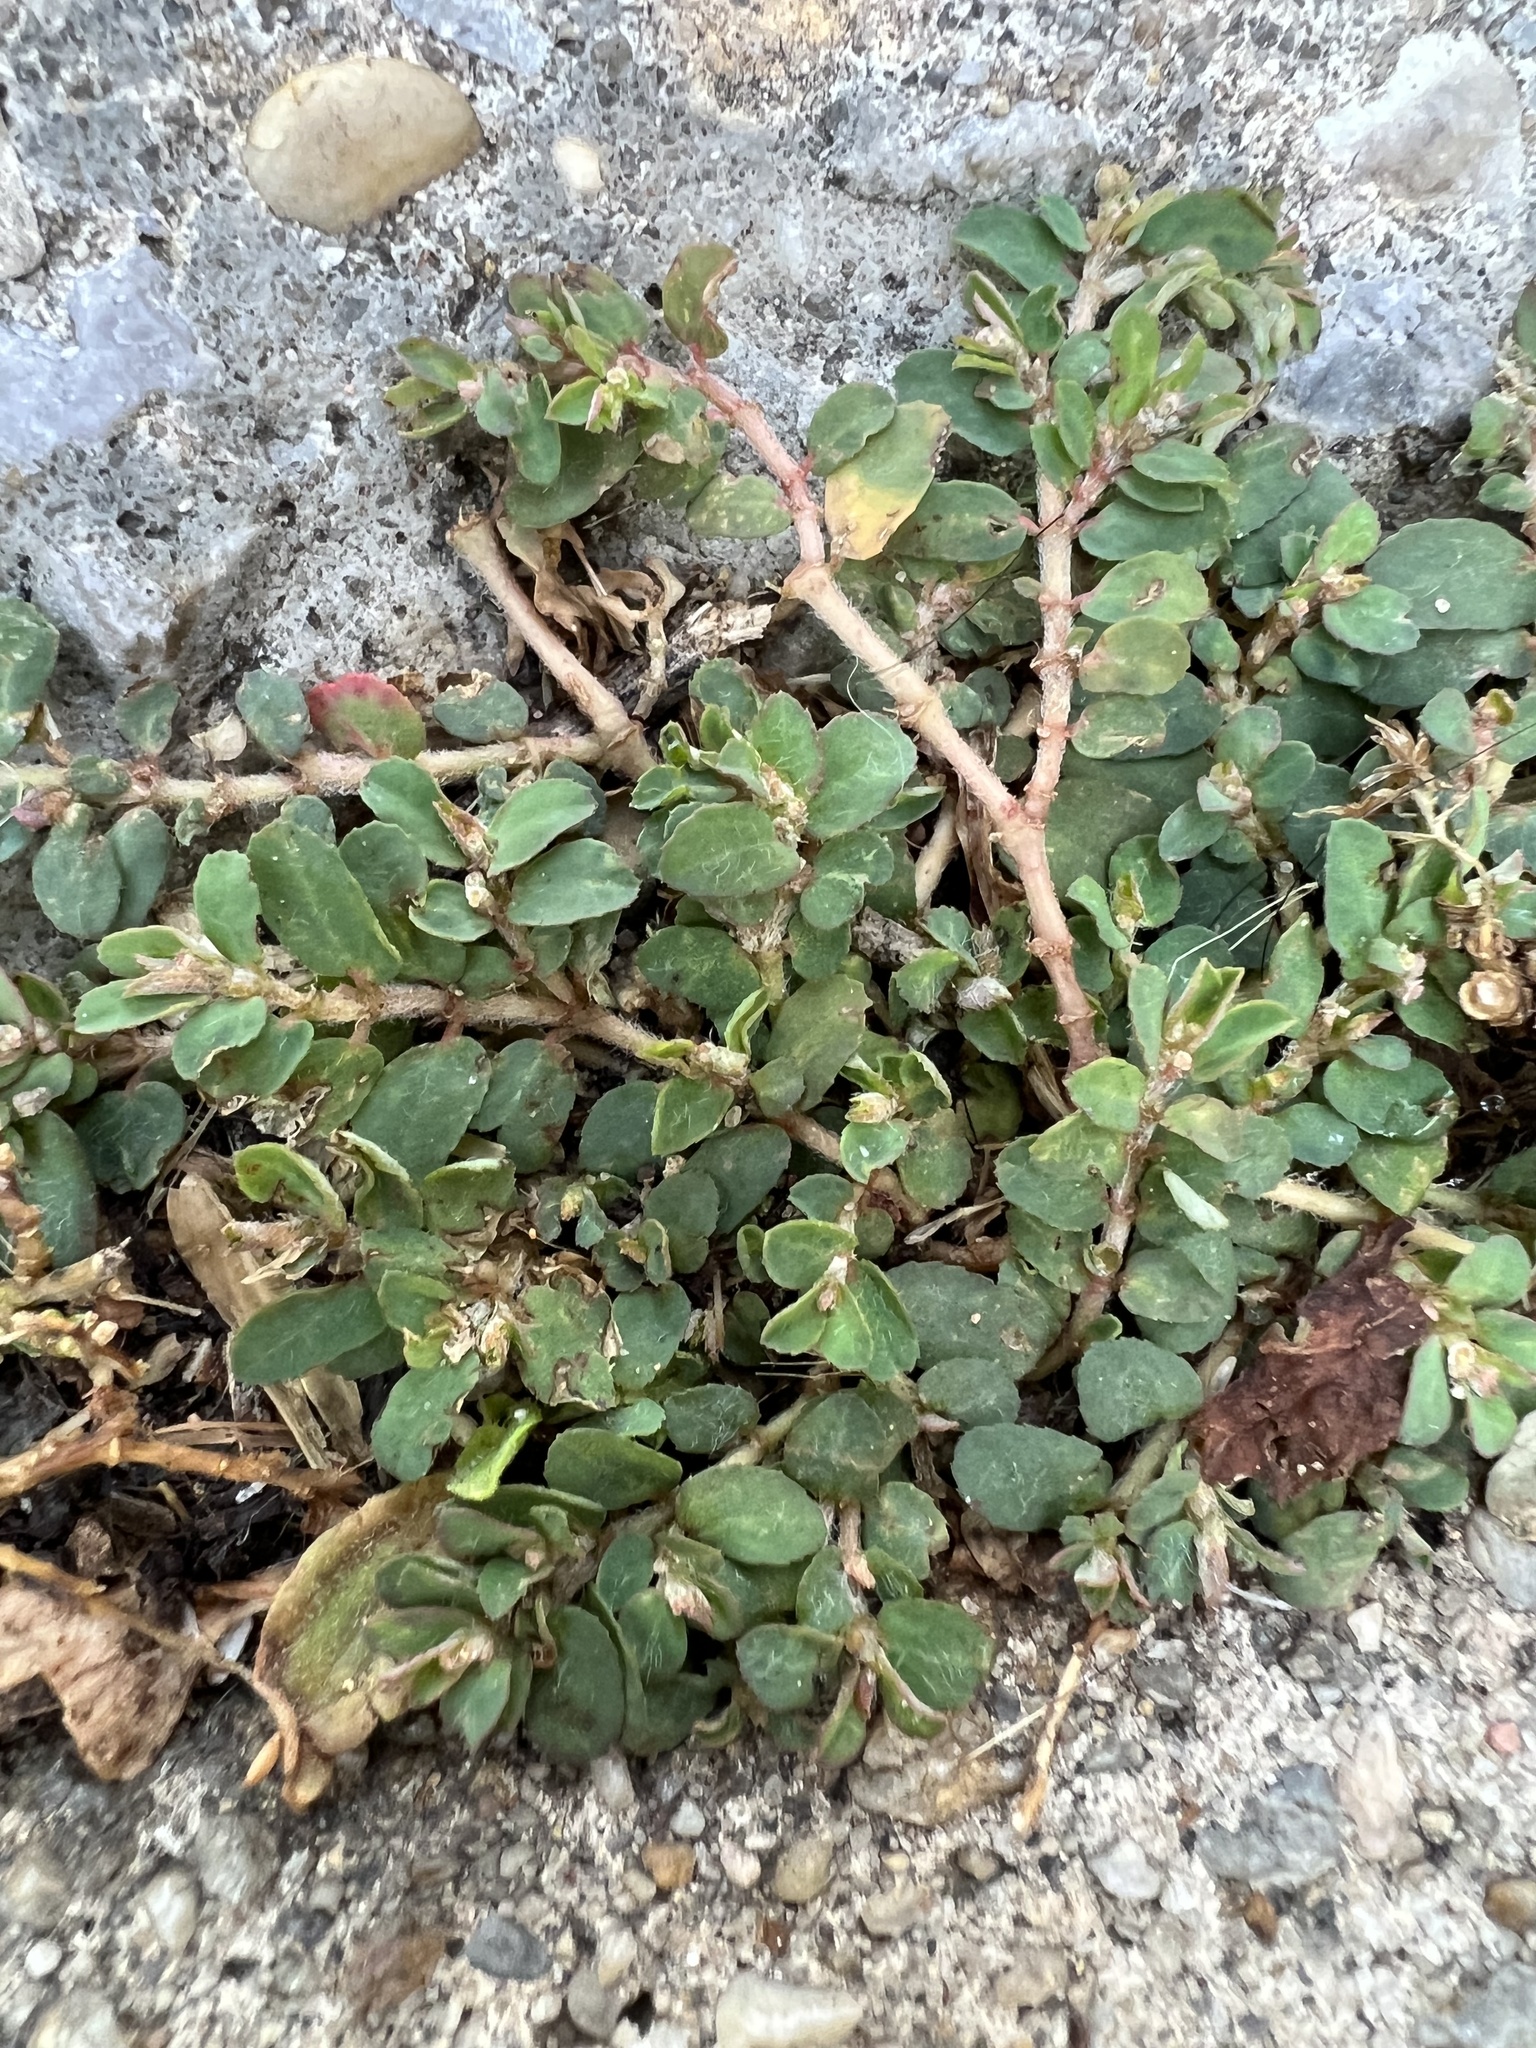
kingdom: Plantae
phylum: Tracheophyta
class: Magnoliopsida
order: Malpighiales
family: Euphorbiaceae
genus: Euphorbia
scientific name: Euphorbia maculata
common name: Spotted spurge
